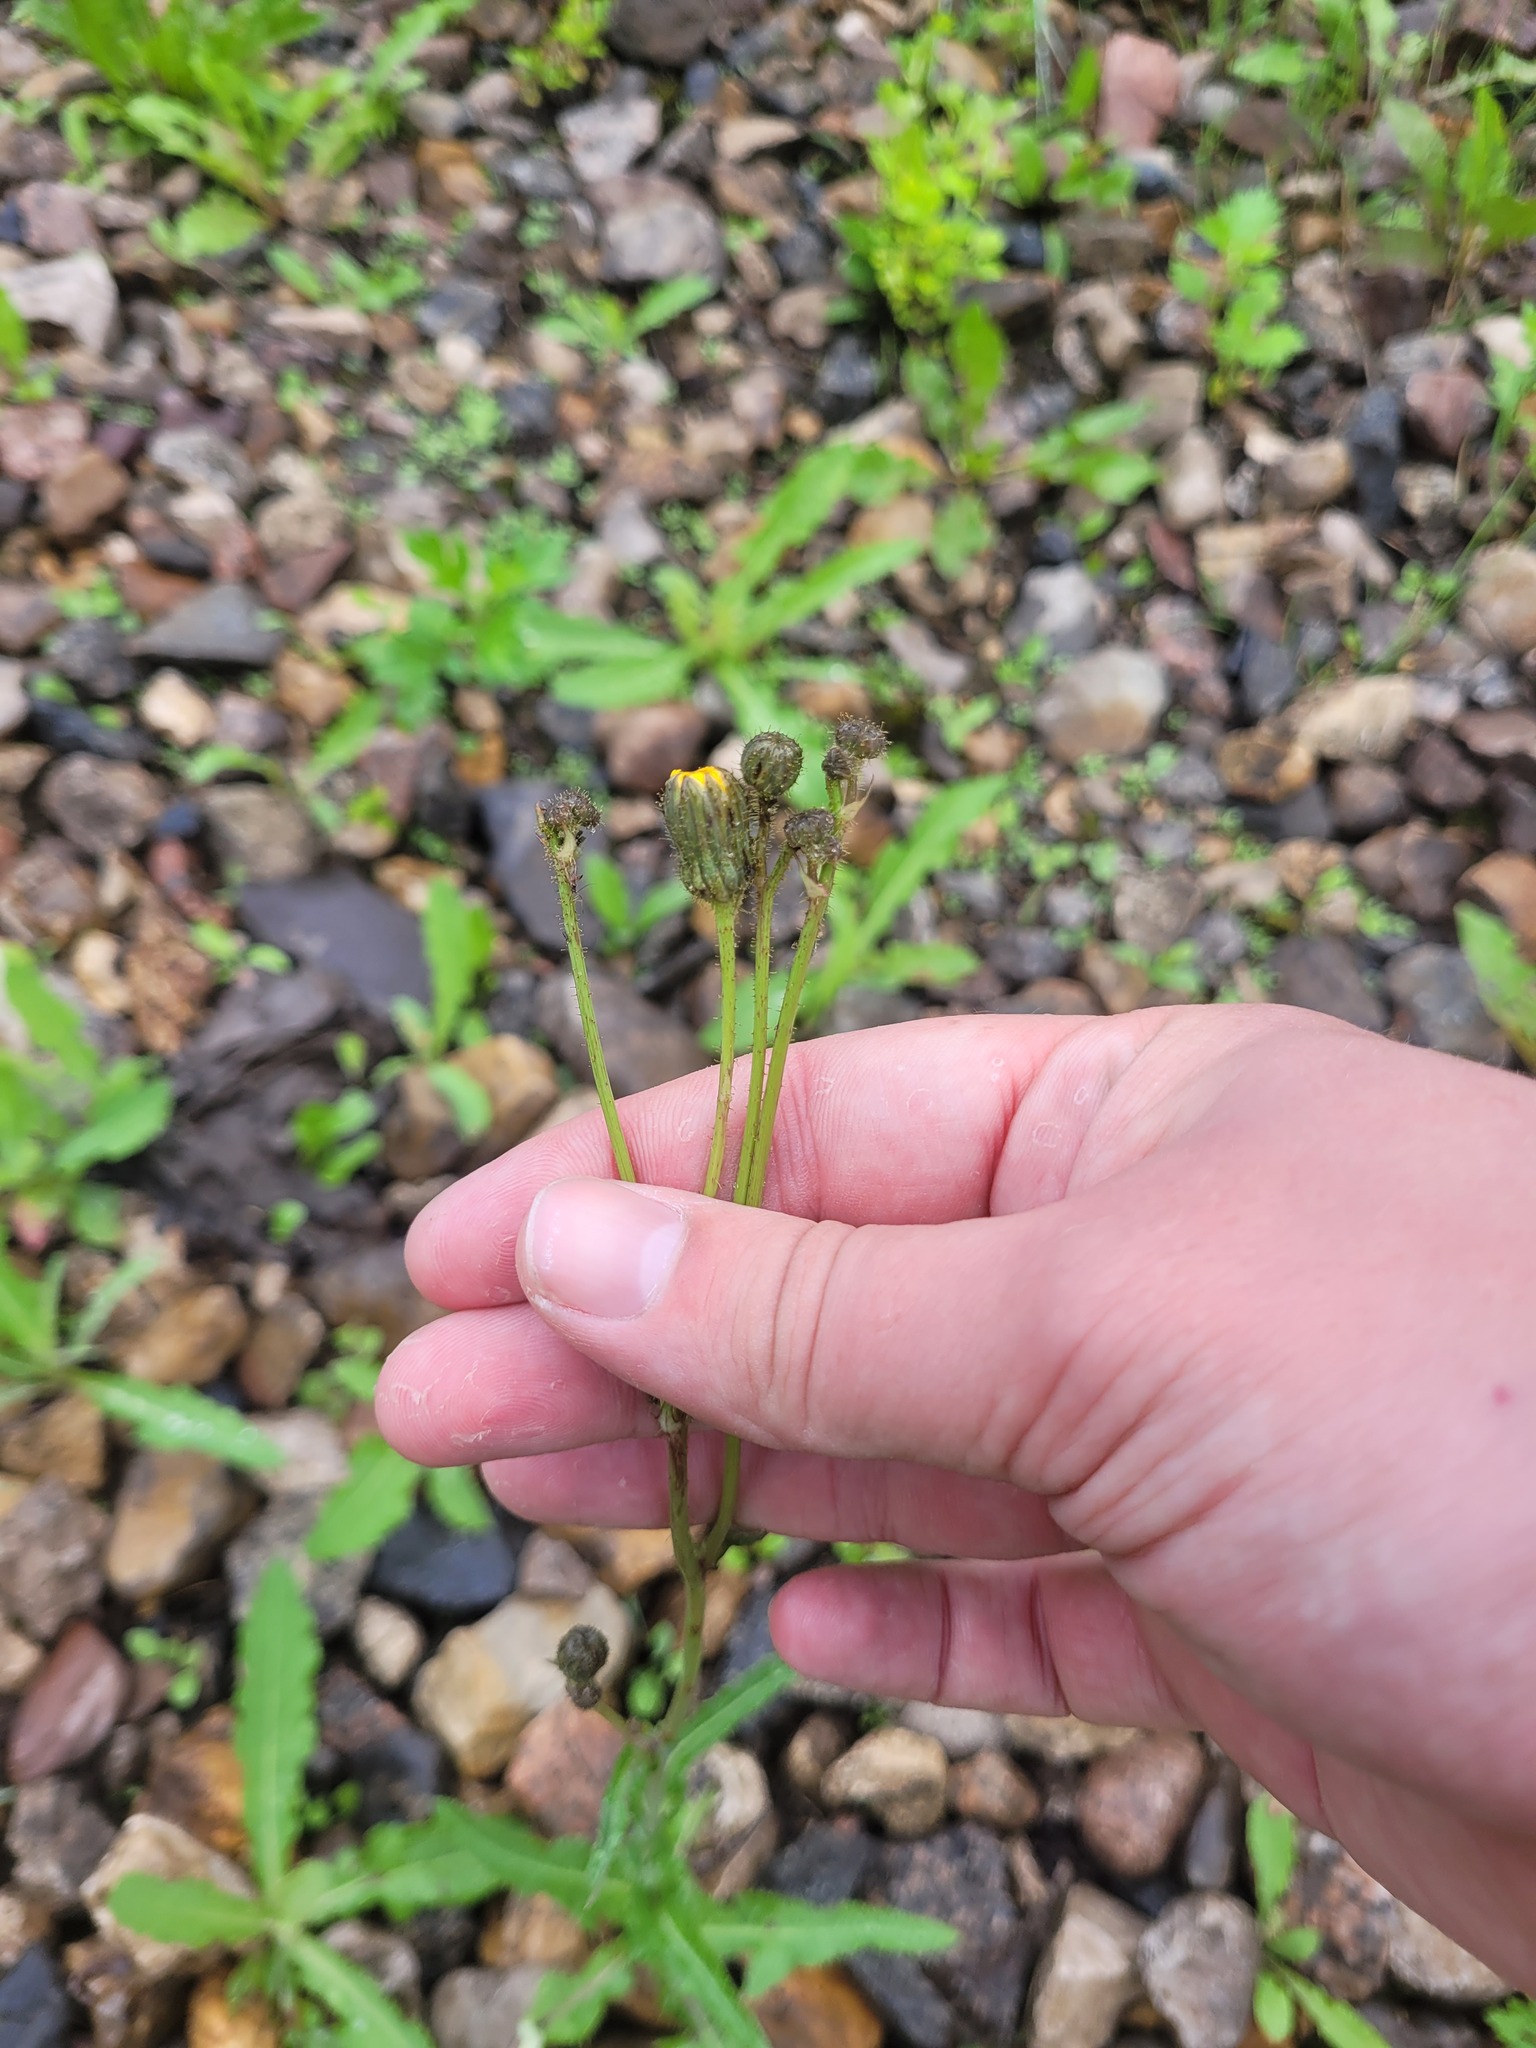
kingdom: Plantae
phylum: Tracheophyta
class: Magnoliopsida
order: Asterales
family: Asteraceae
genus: Sonchus
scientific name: Sonchus arvensis
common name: Perennial sow-thistle
